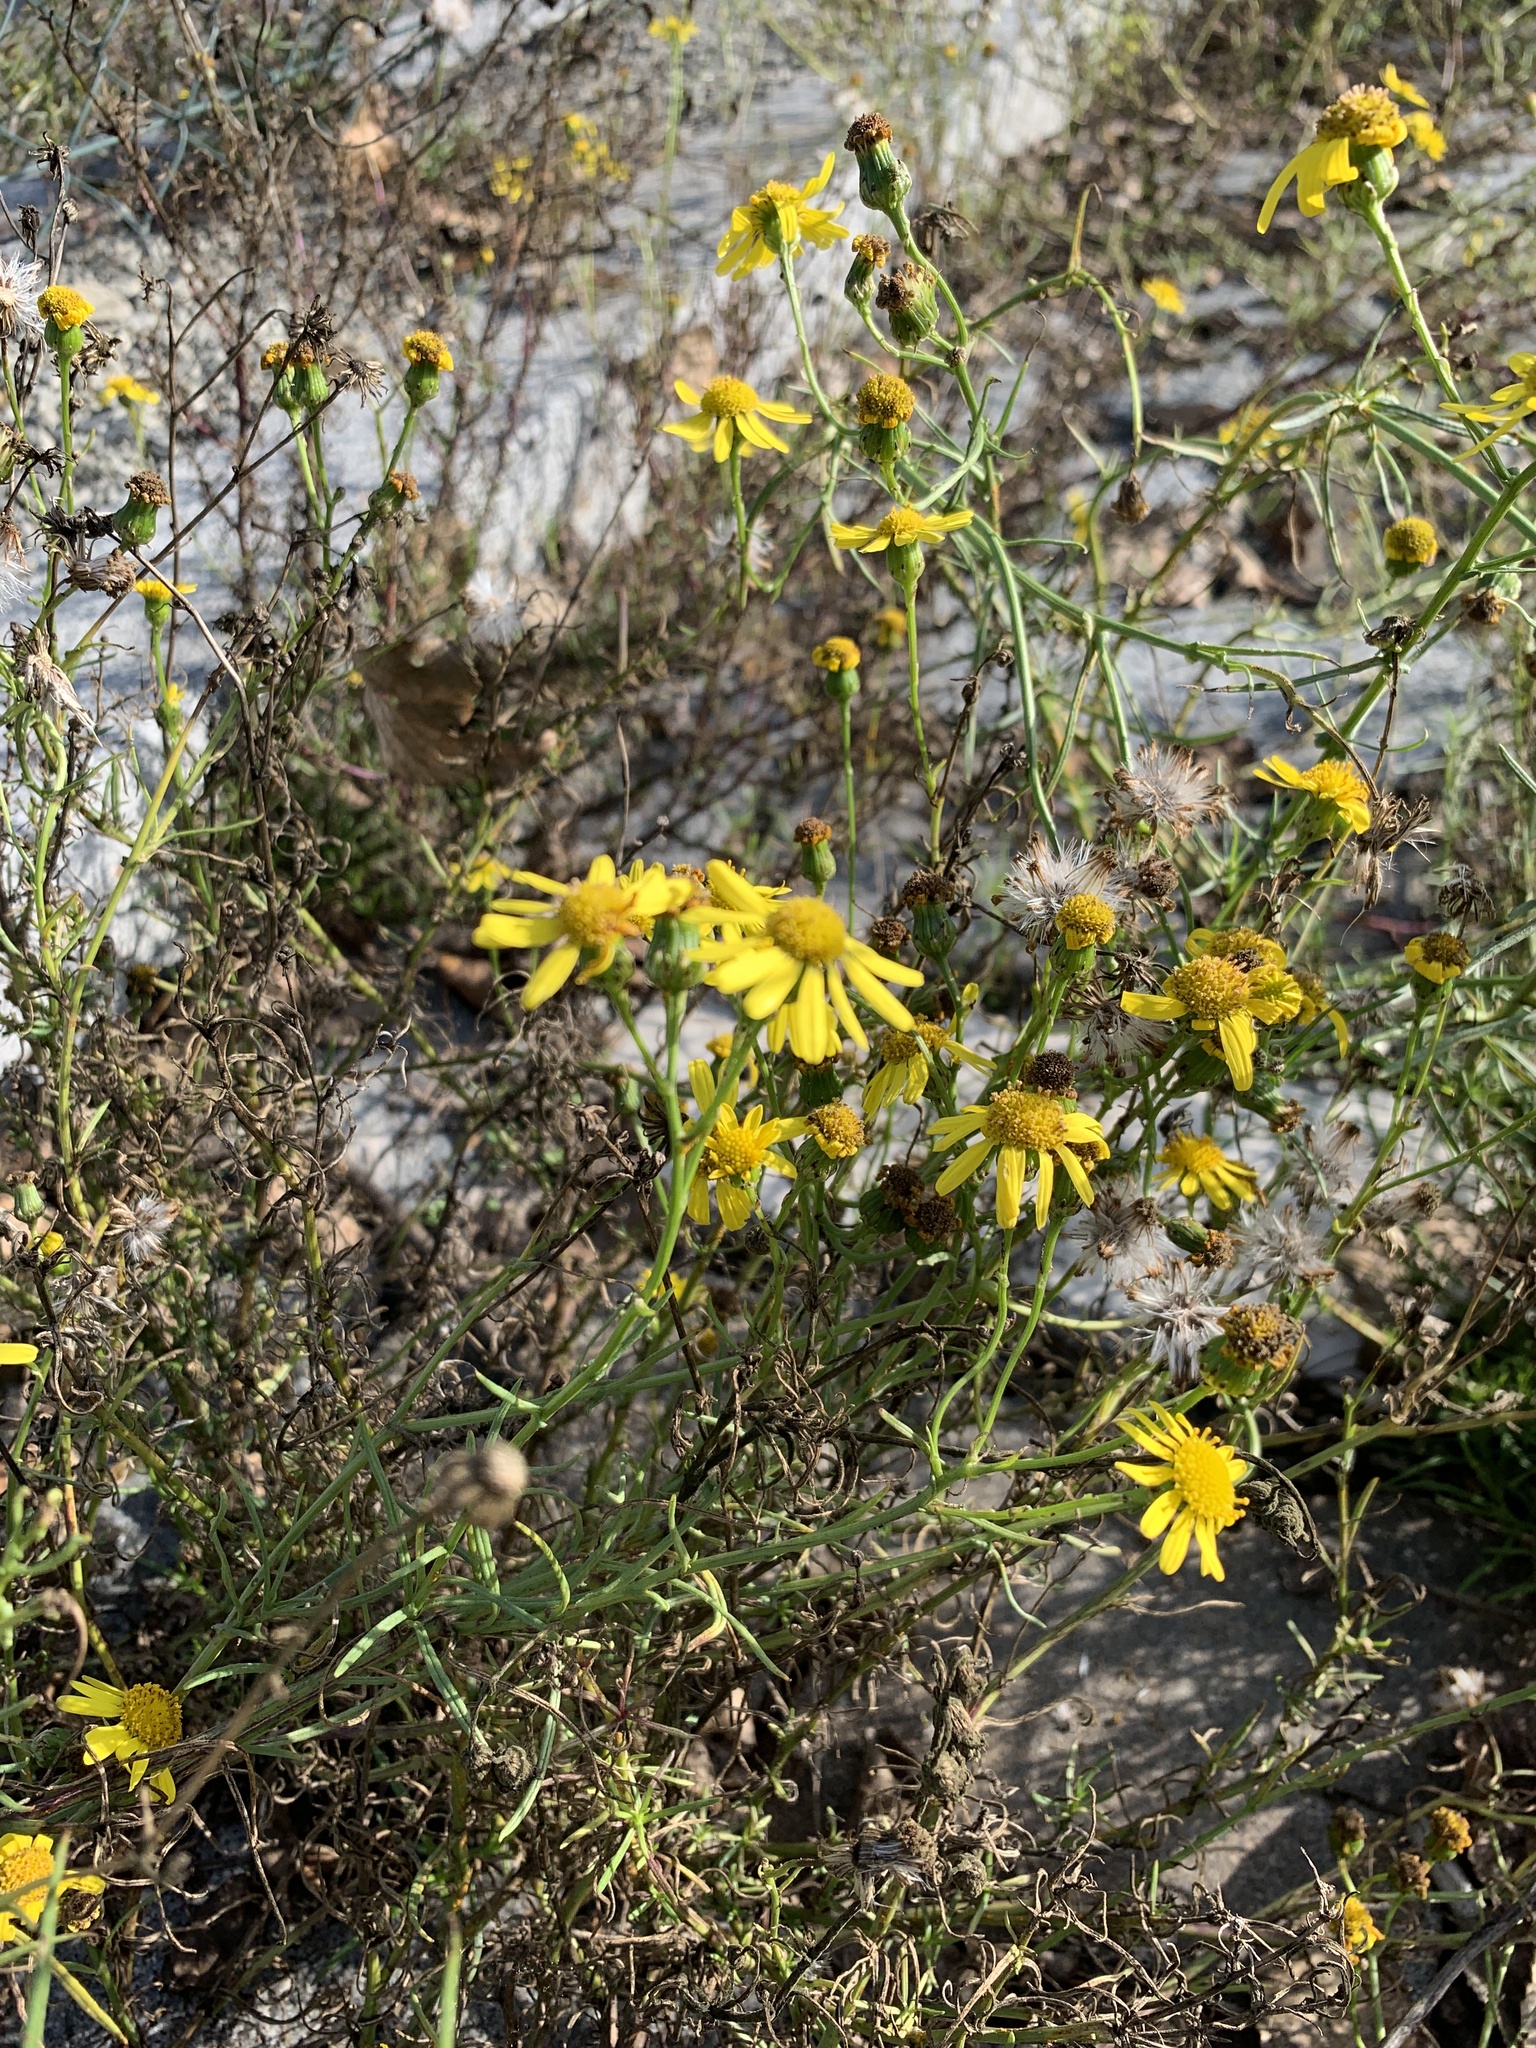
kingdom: Plantae
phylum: Tracheophyta
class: Magnoliopsida
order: Asterales
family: Asteraceae
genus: Senecio
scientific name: Senecio inaequidens
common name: Narrow-leaved ragwort
